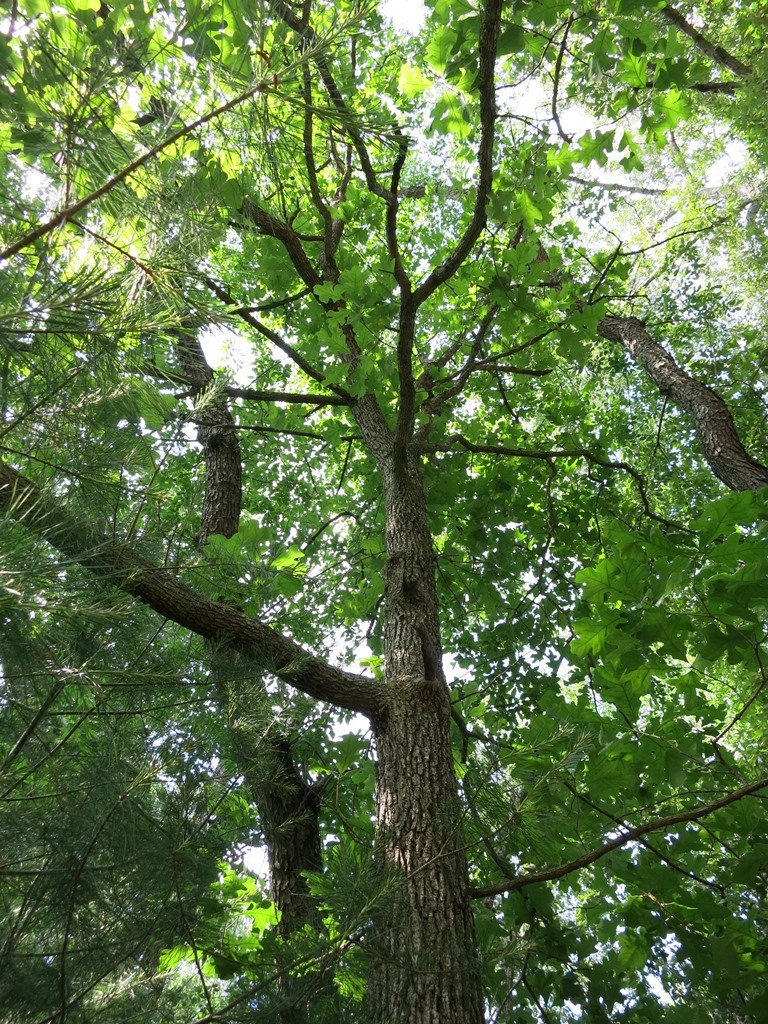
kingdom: Plantae
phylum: Tracheophyta
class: Magnoliopsida
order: Fagales
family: Fagaceae
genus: Quercus
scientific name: Quercus stellata
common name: Post oak
